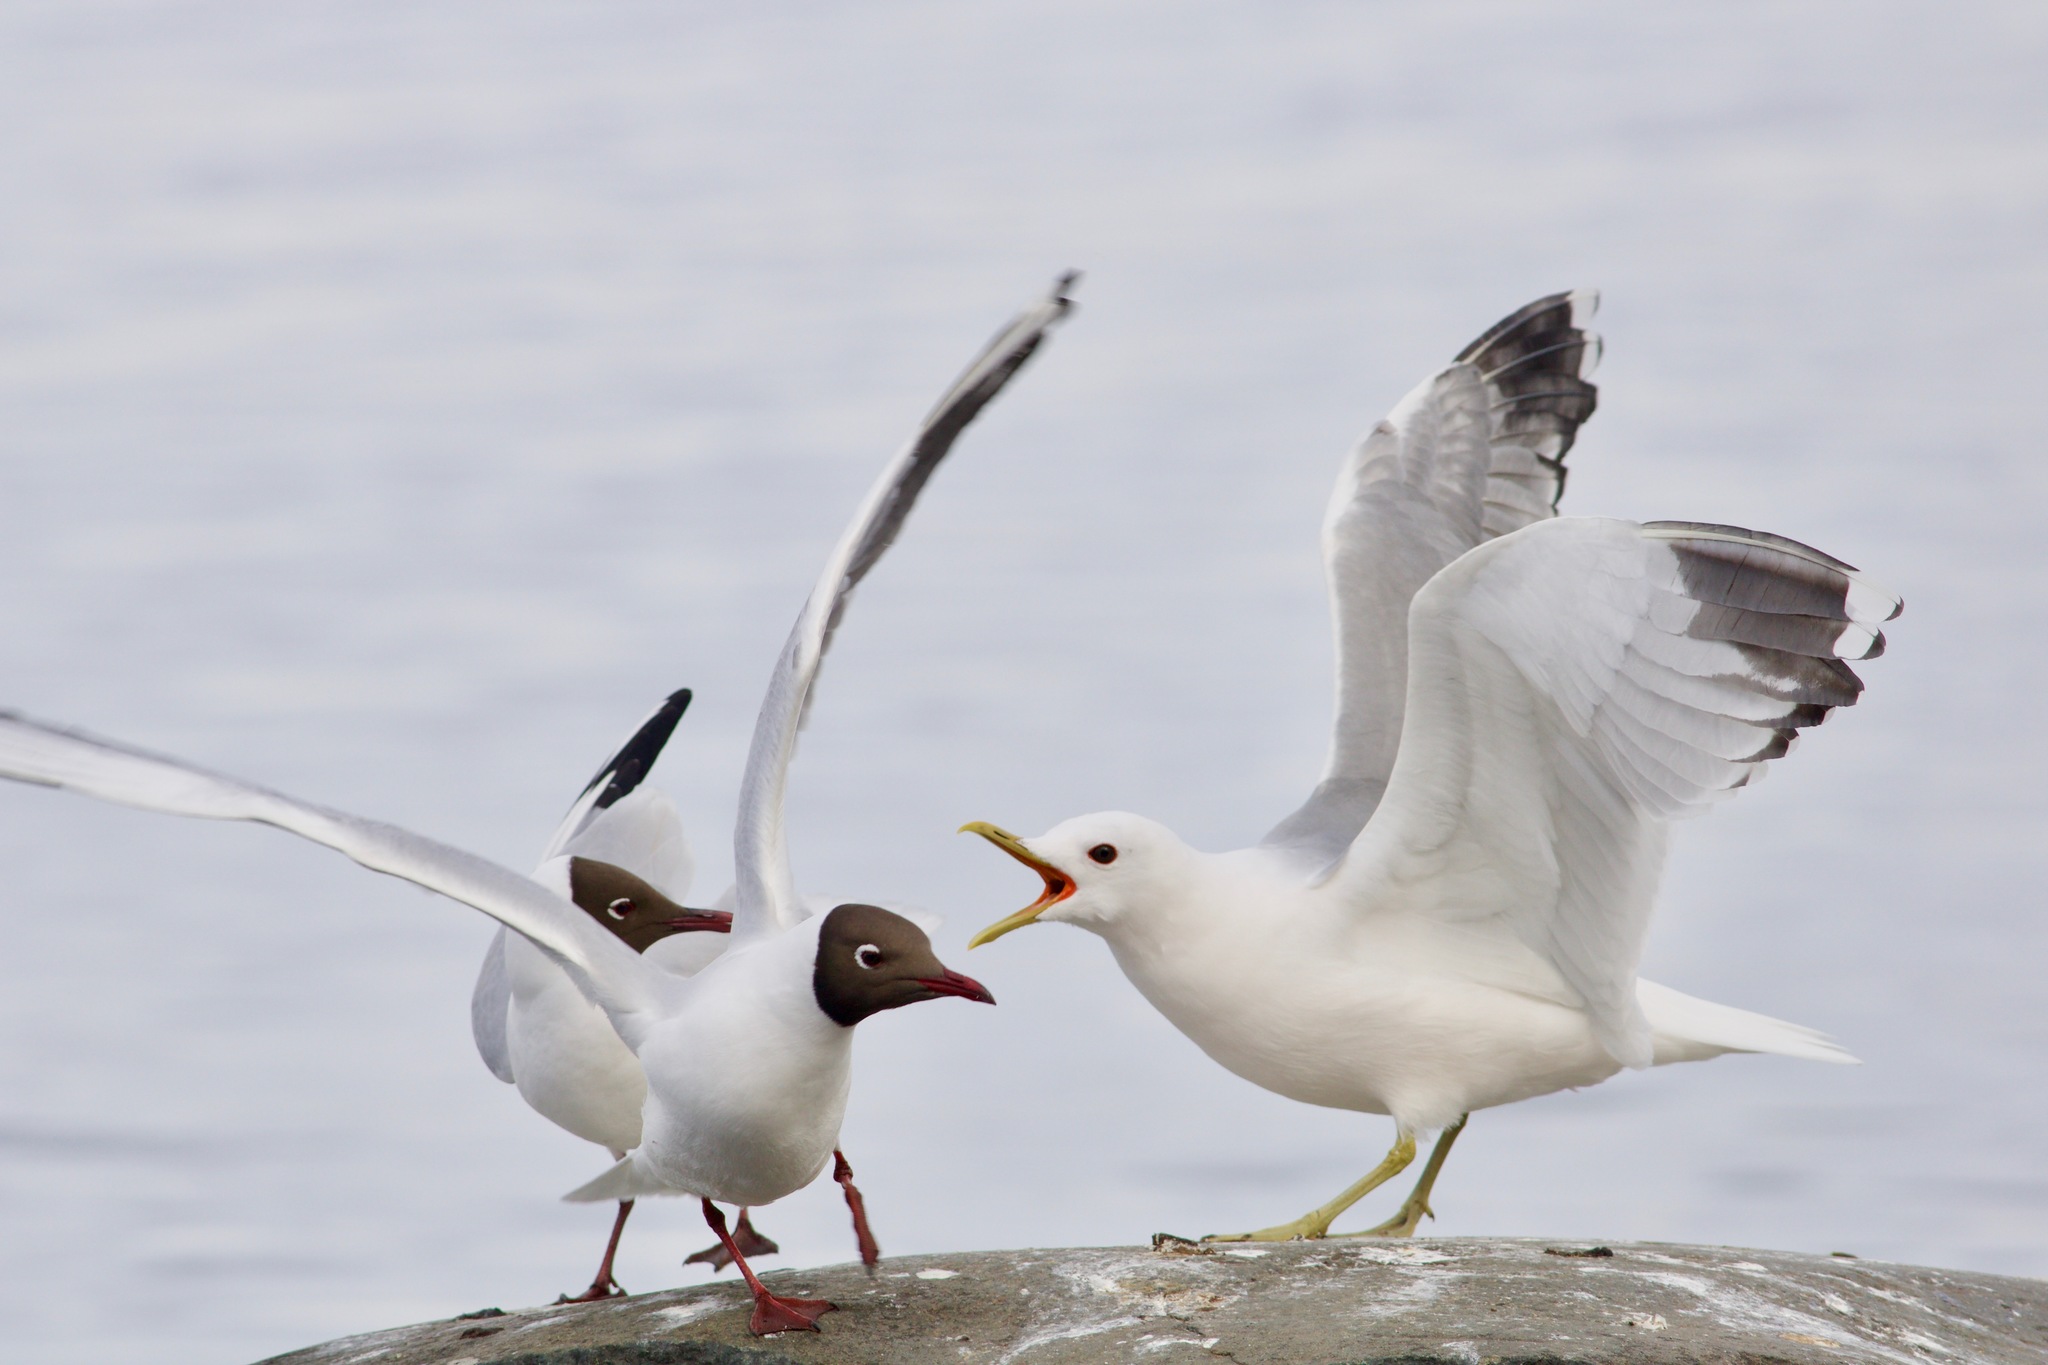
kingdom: Animalia
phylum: Chordata
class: Aves
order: Charadriiformes
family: Laridae
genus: Larus
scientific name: Larus canus
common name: Mew gull
